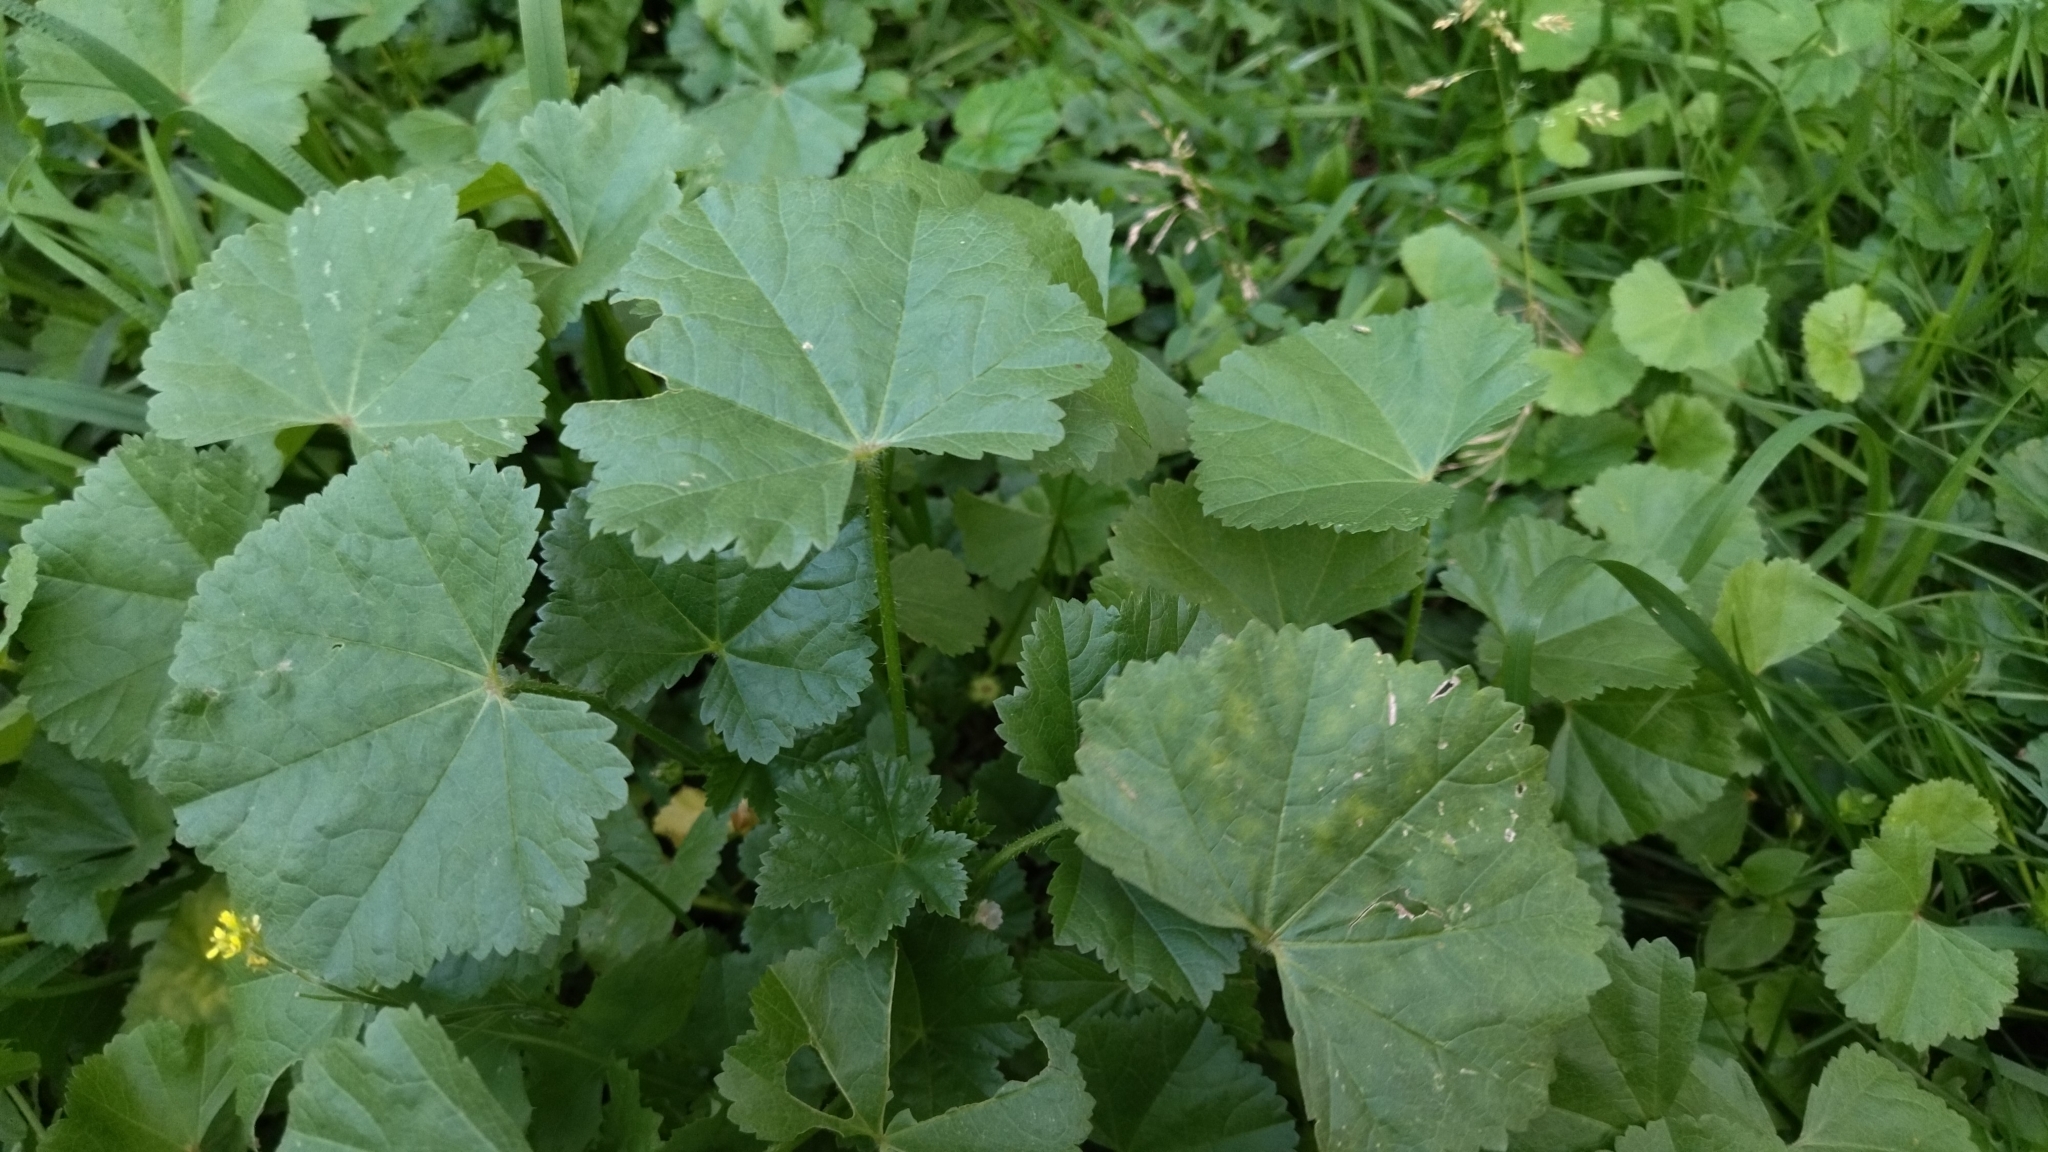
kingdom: Plantae
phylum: Tracheophyta
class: Magnoliopsida
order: Malvales
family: Malvaceae
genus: Malva
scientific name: Malva pusilla
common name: Small mallow
